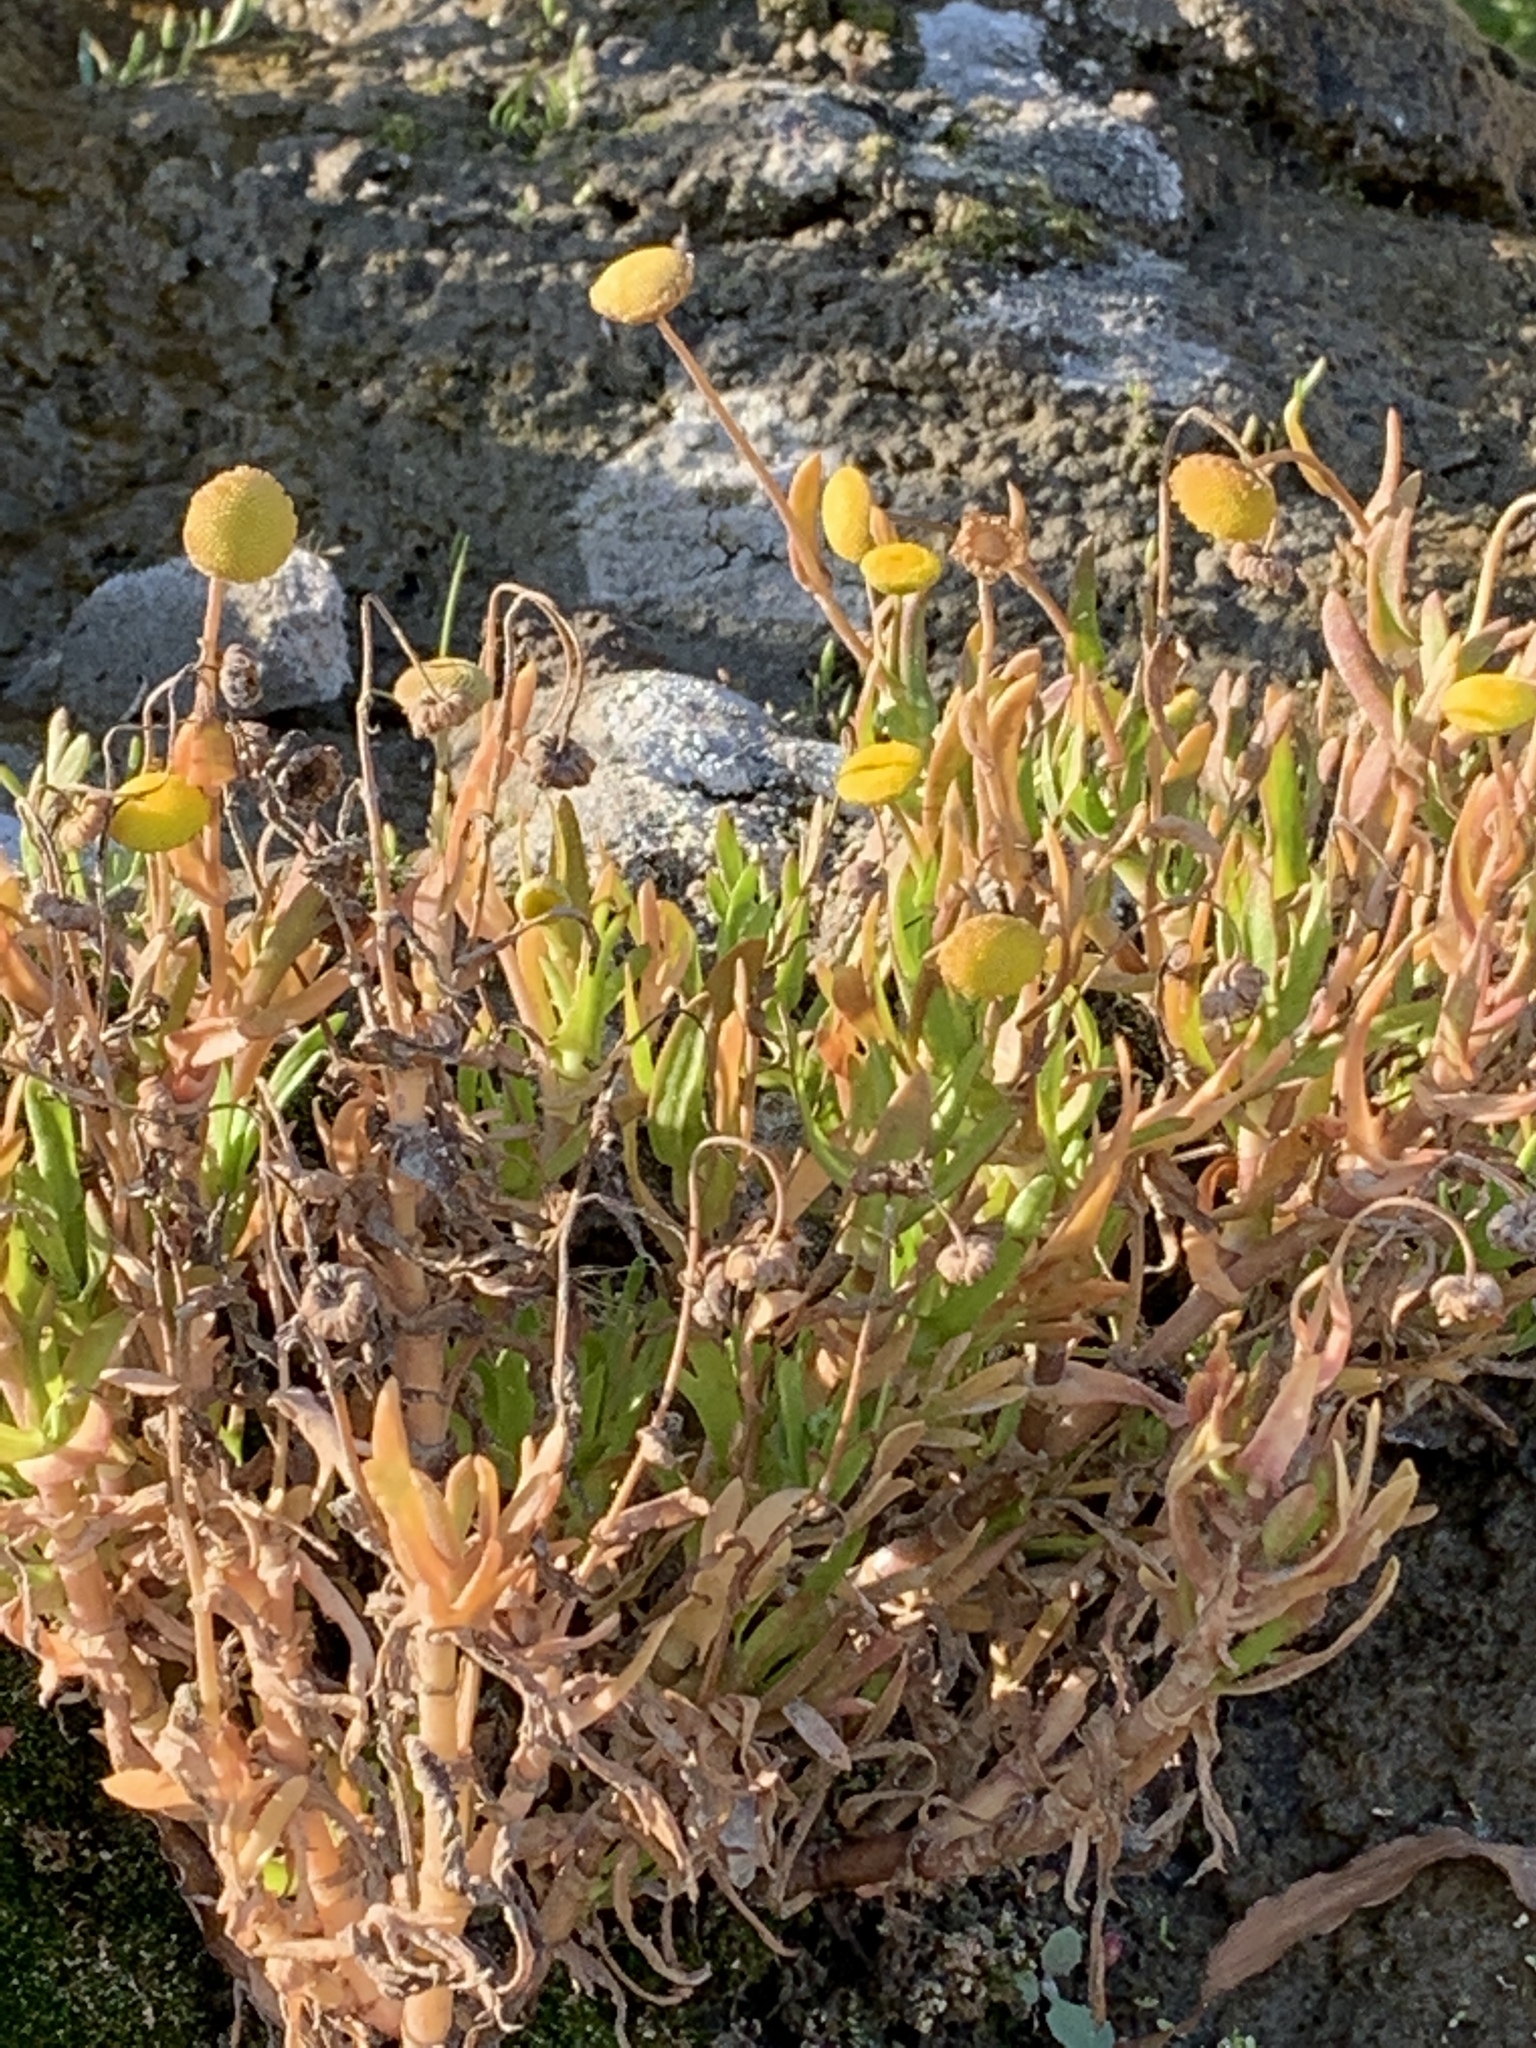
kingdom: Plantae
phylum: Tracheophyta
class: Magnoliopsida
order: Asterales
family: Asteraceae
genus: Cotula
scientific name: Cotula coronopifolia
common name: Buttonweed
